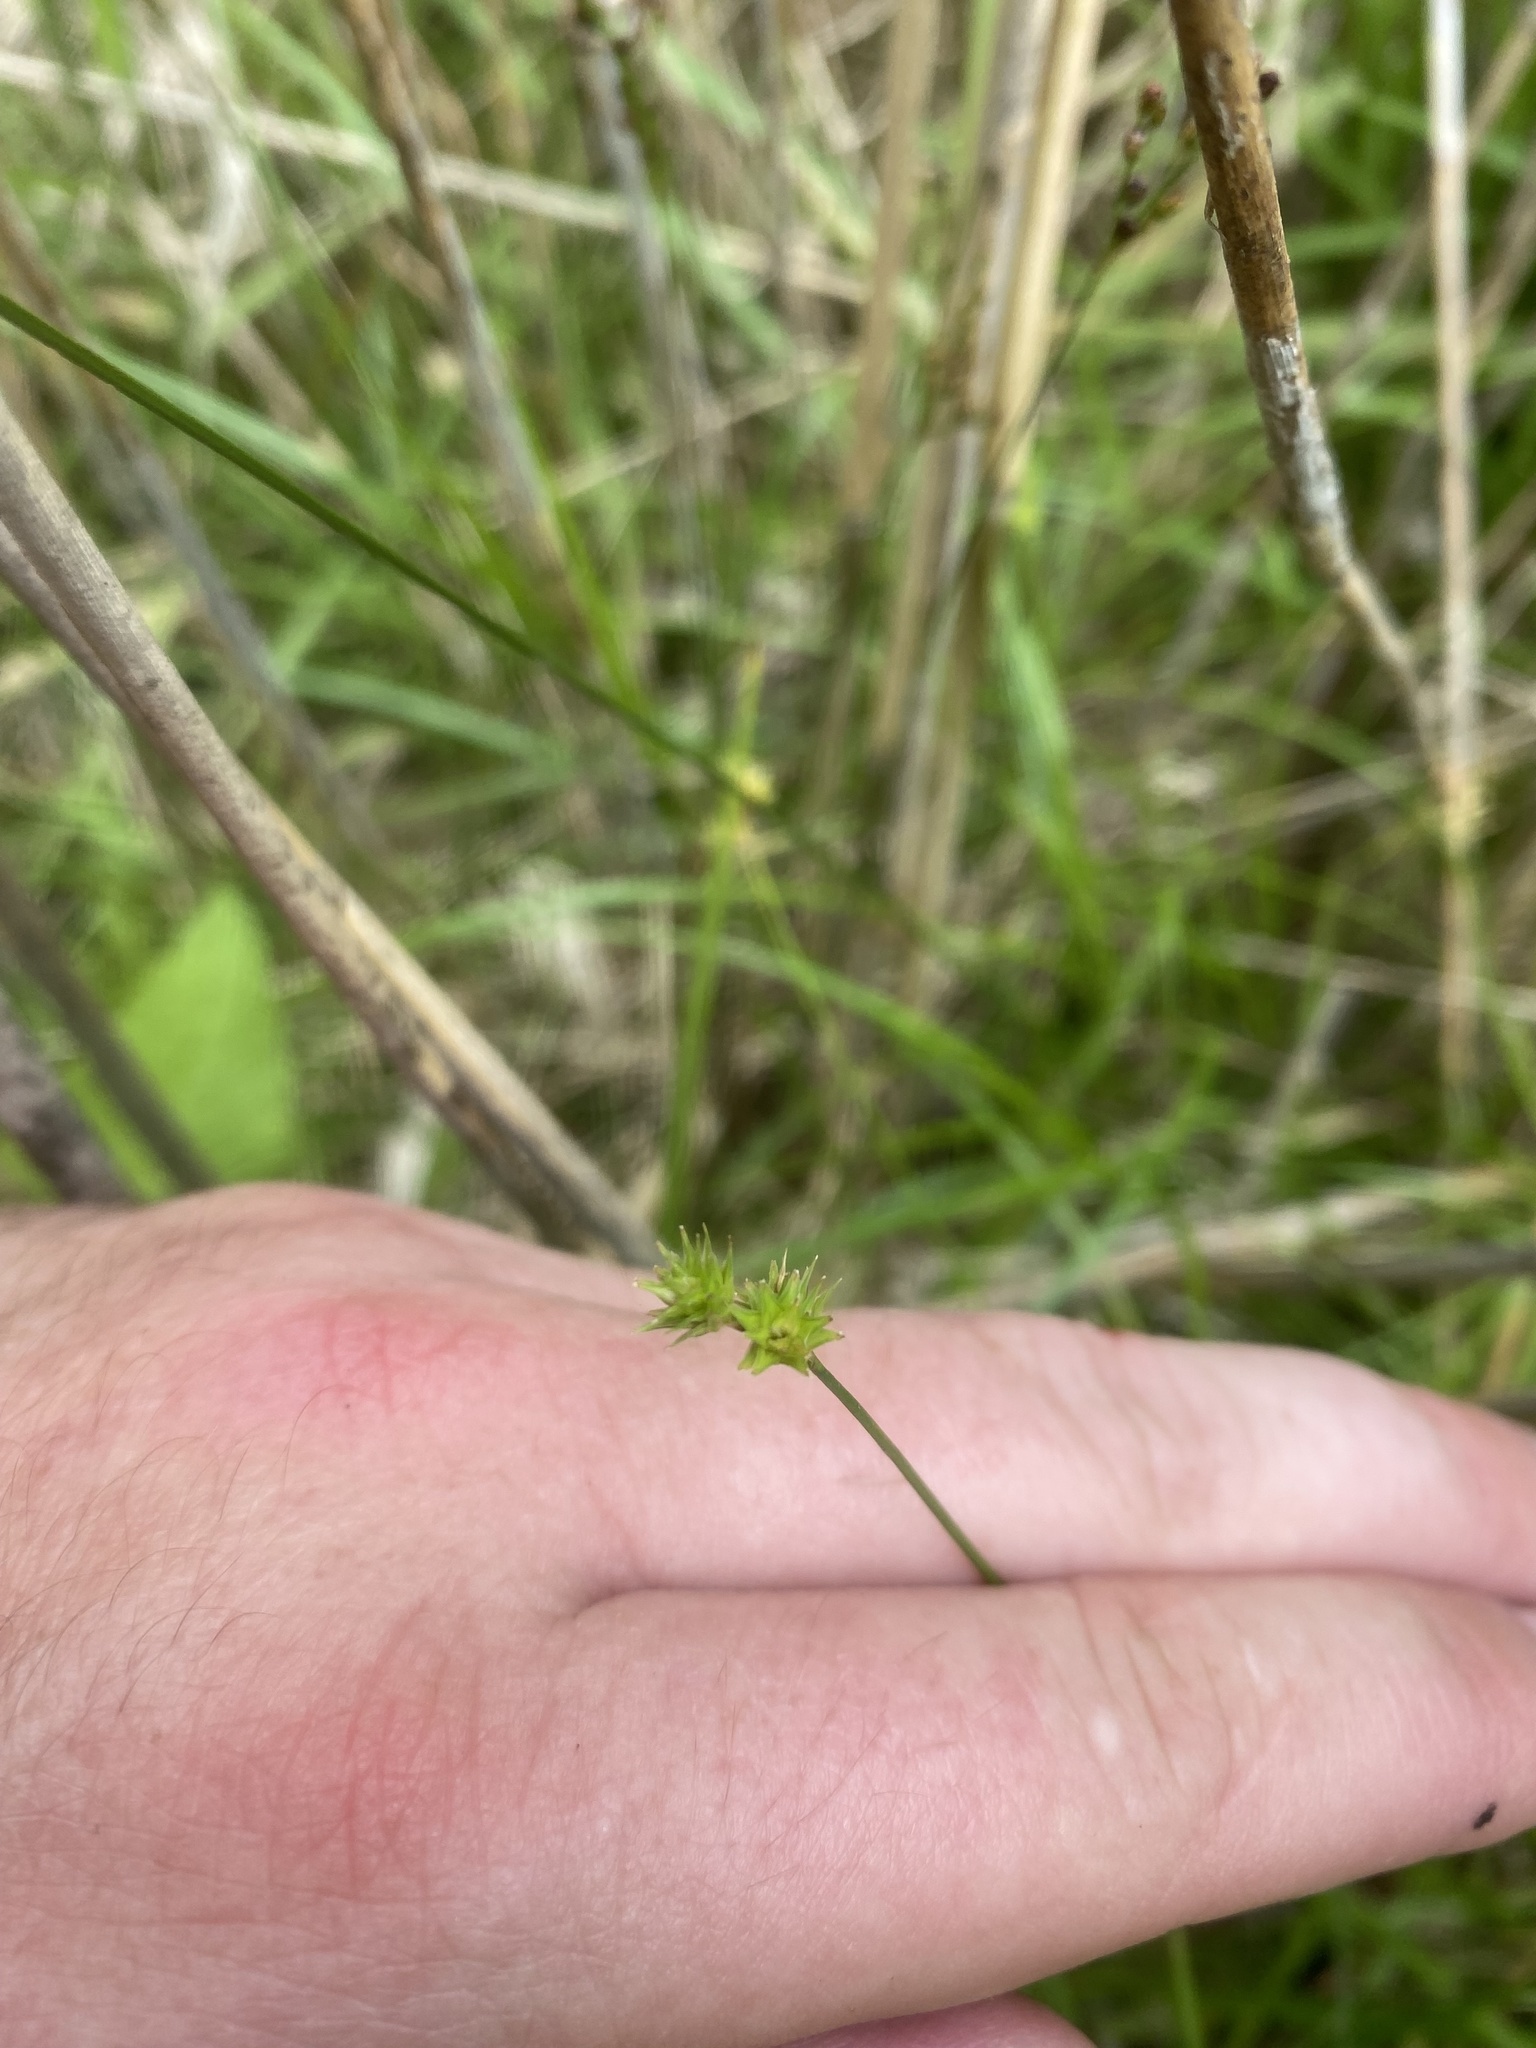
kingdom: Plantae
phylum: Tracheophyta
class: Liliopsida
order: Poales
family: Cyperaceae
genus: Carex
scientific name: Carex echinata
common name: Star sedge
